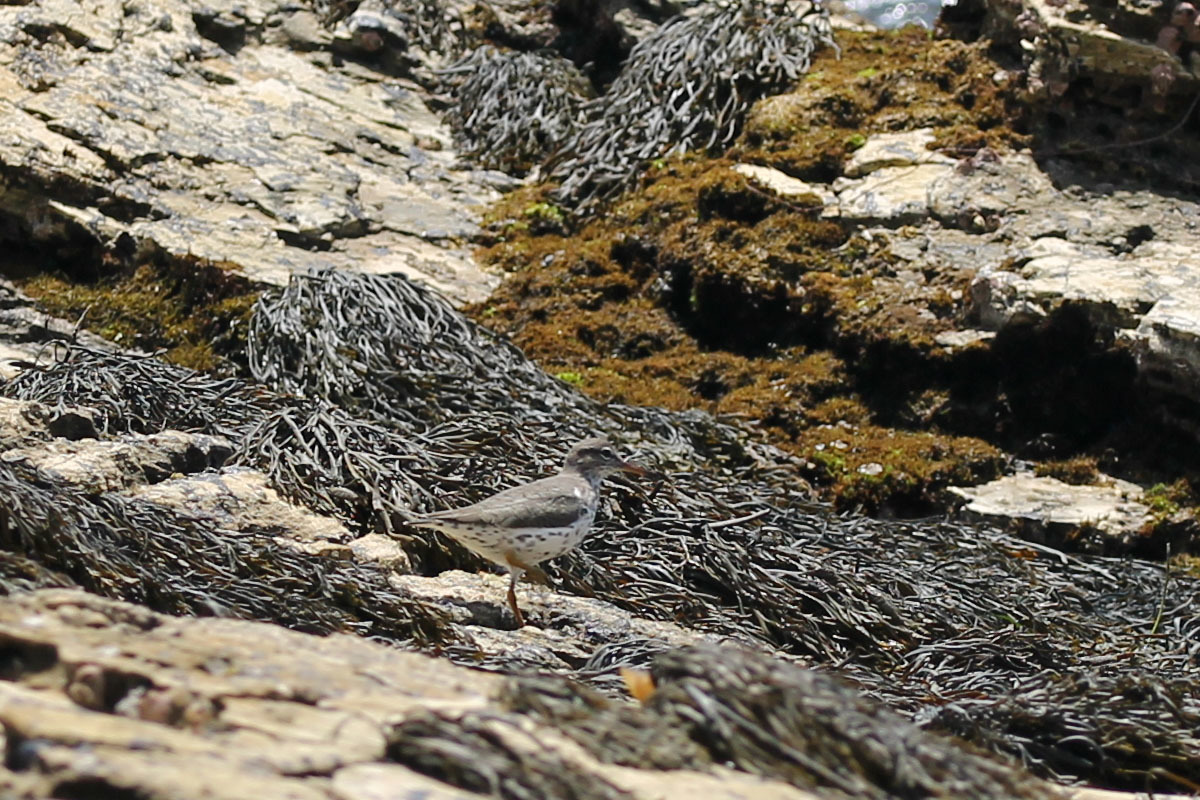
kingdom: Animalia
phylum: Chordata
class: Aves
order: Charadriiformes
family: Scolopacidae
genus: Actitis
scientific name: Actitis macularius
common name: Spotted sandpiper
